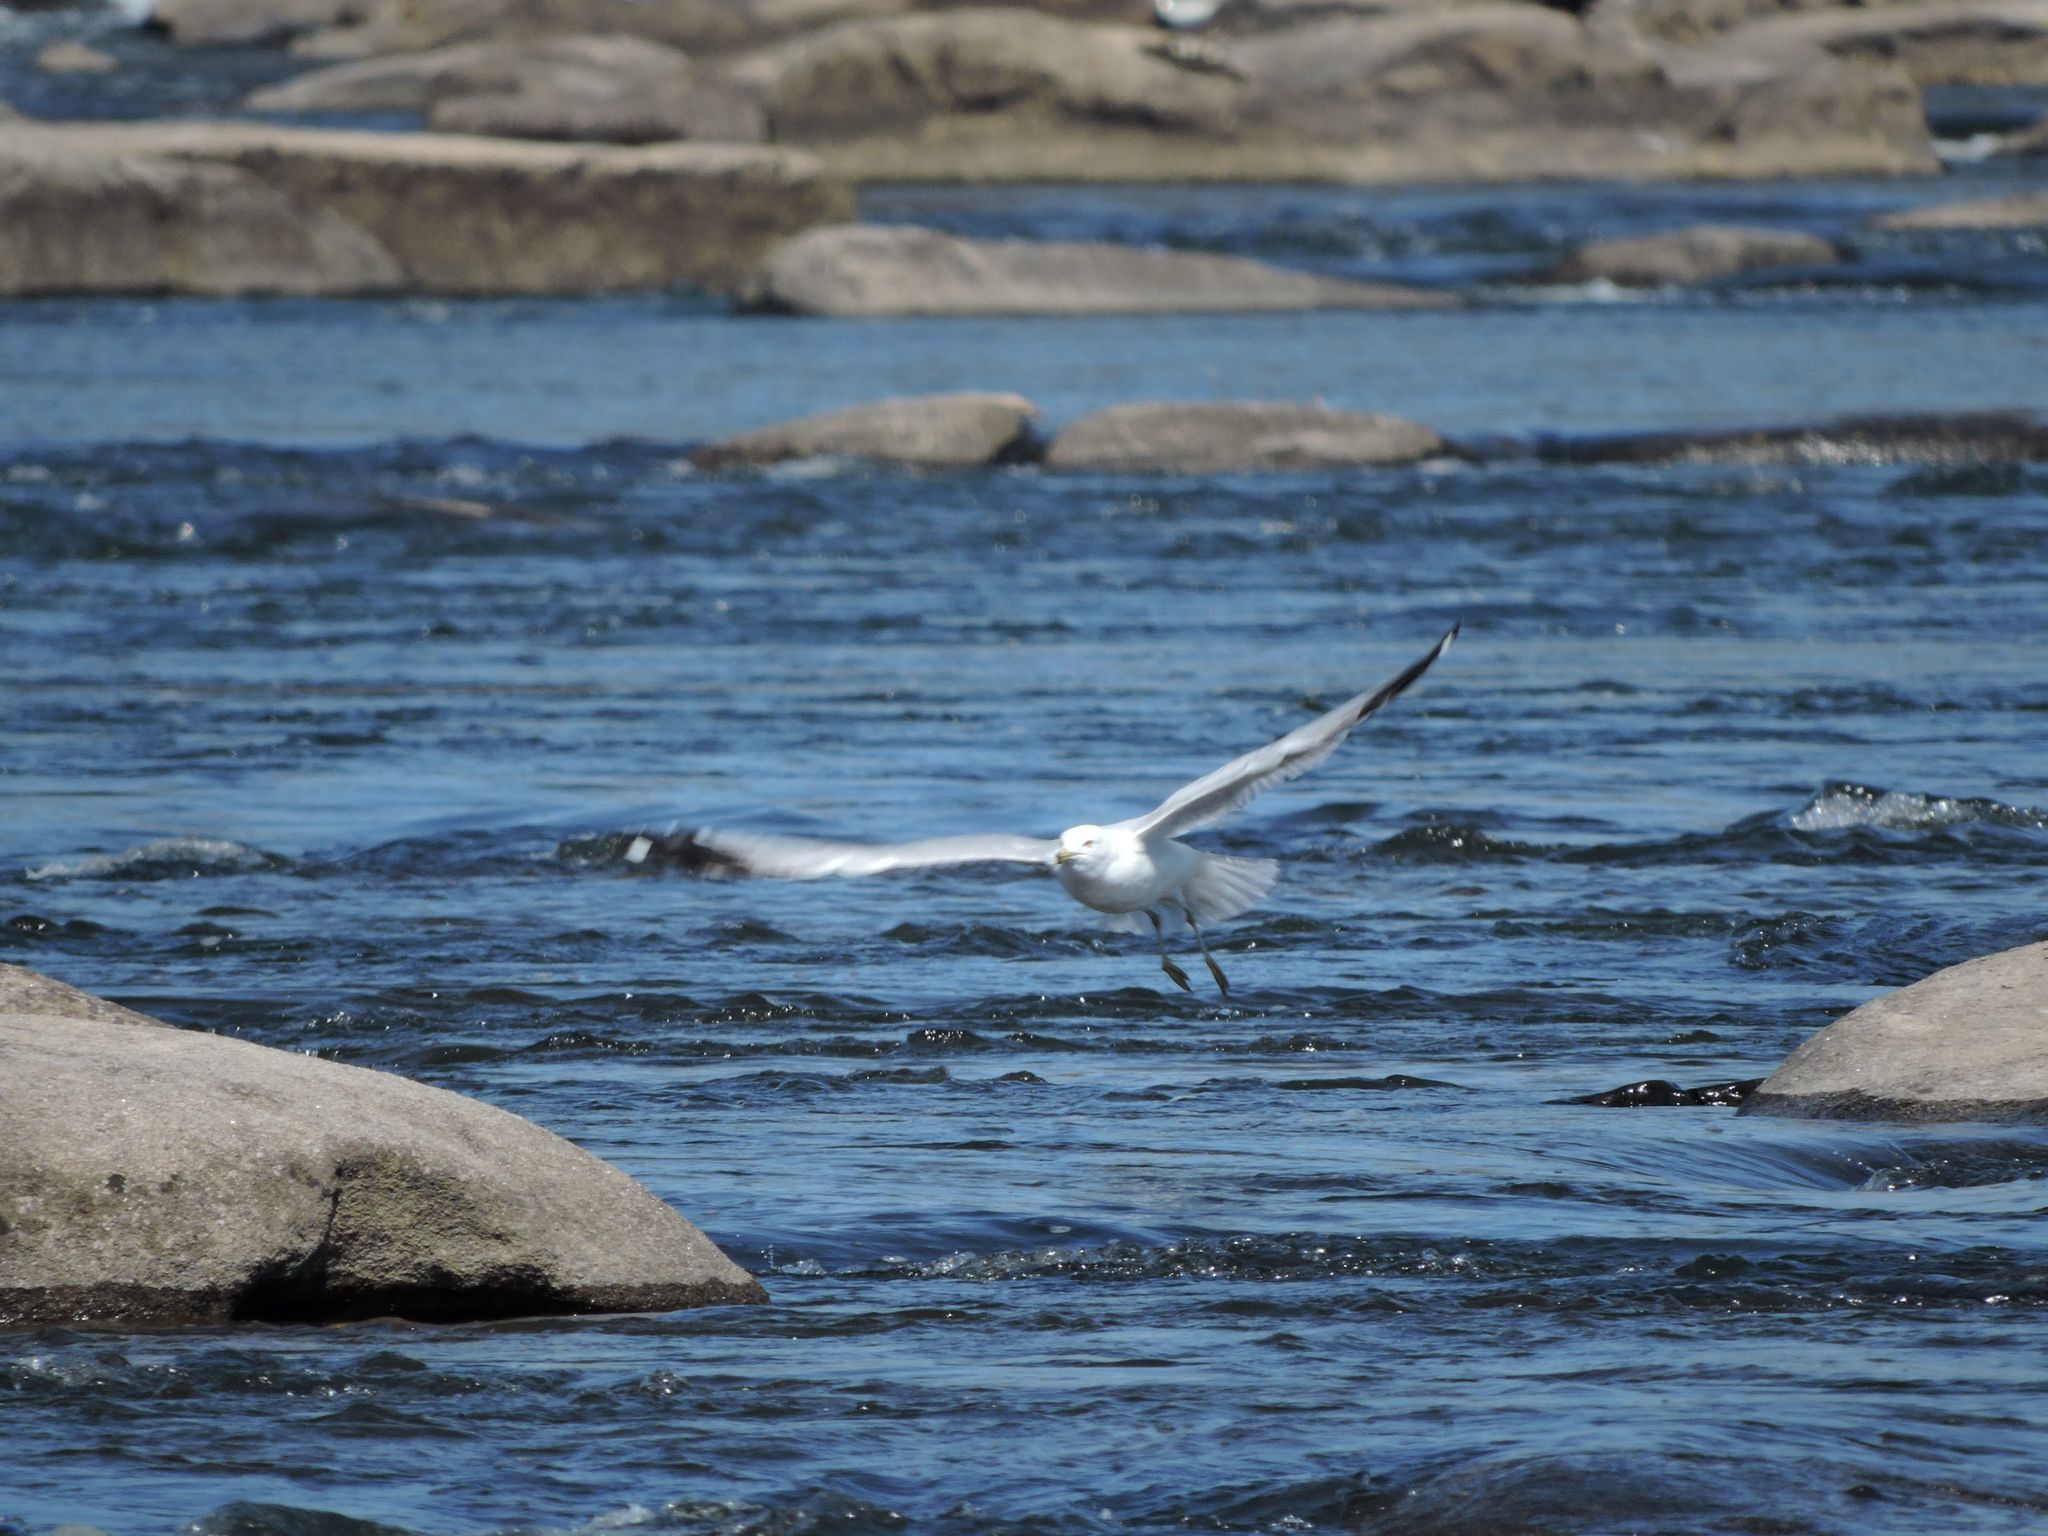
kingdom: Animalia
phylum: Chordata
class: Aves
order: Charadriiformes
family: Laridae
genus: Larus
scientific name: Larus delawarensis
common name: Ring-billed gull
